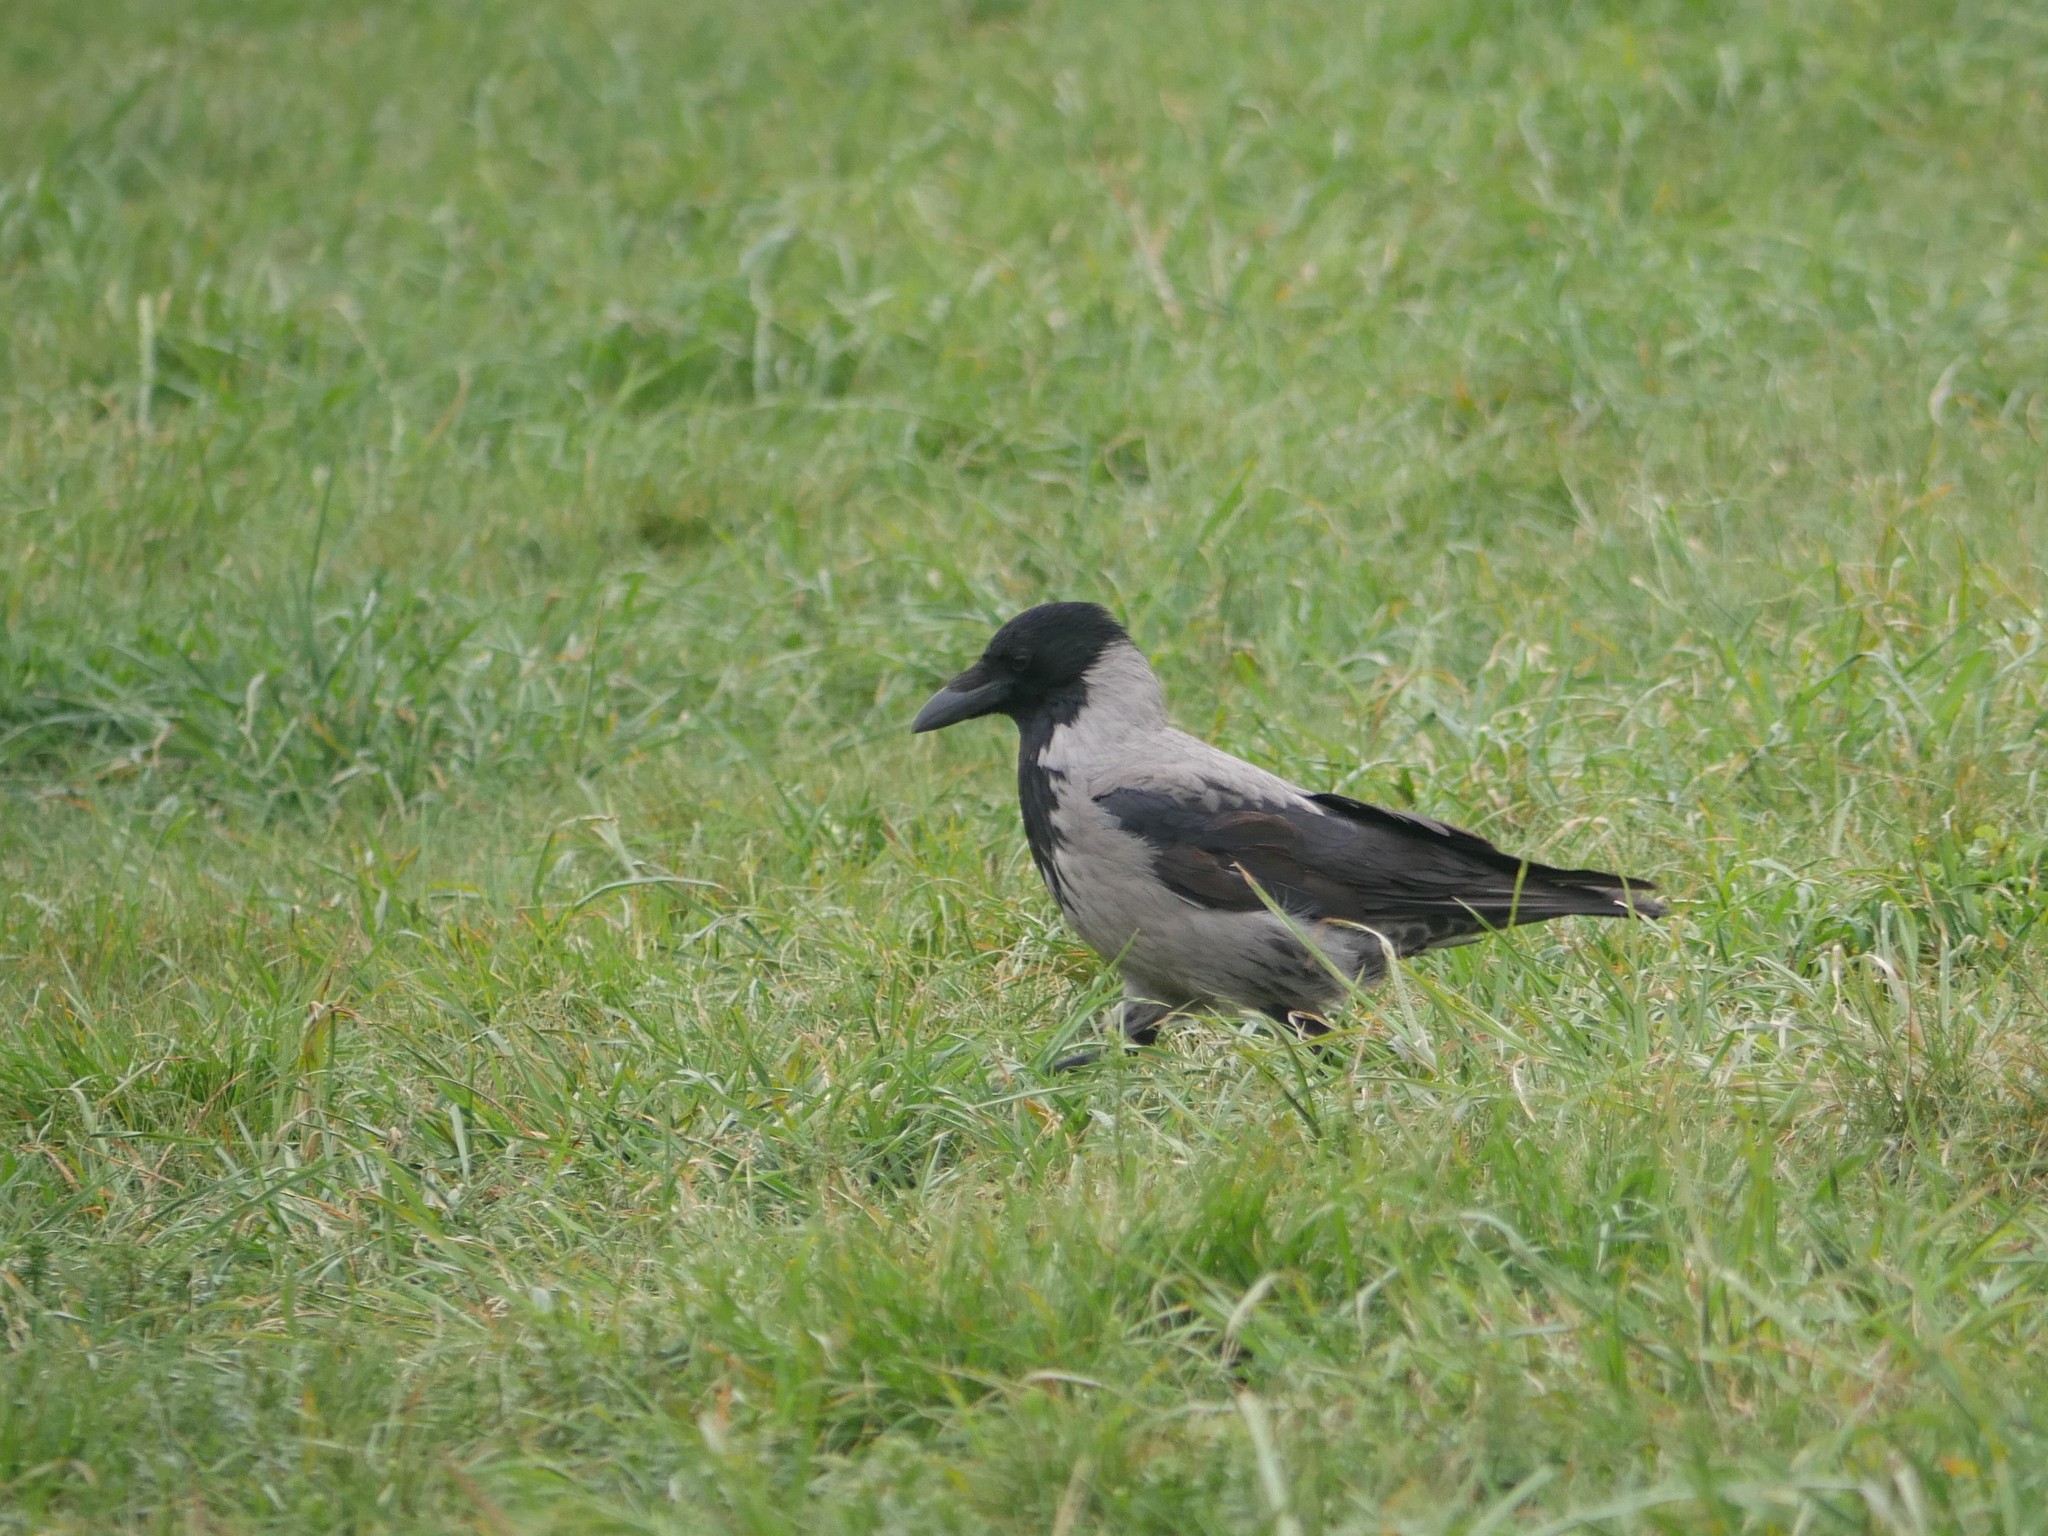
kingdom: Animalia
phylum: Chordata
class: Aves
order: Passeriformes
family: Corvidae
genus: Corvus
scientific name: Corvus
